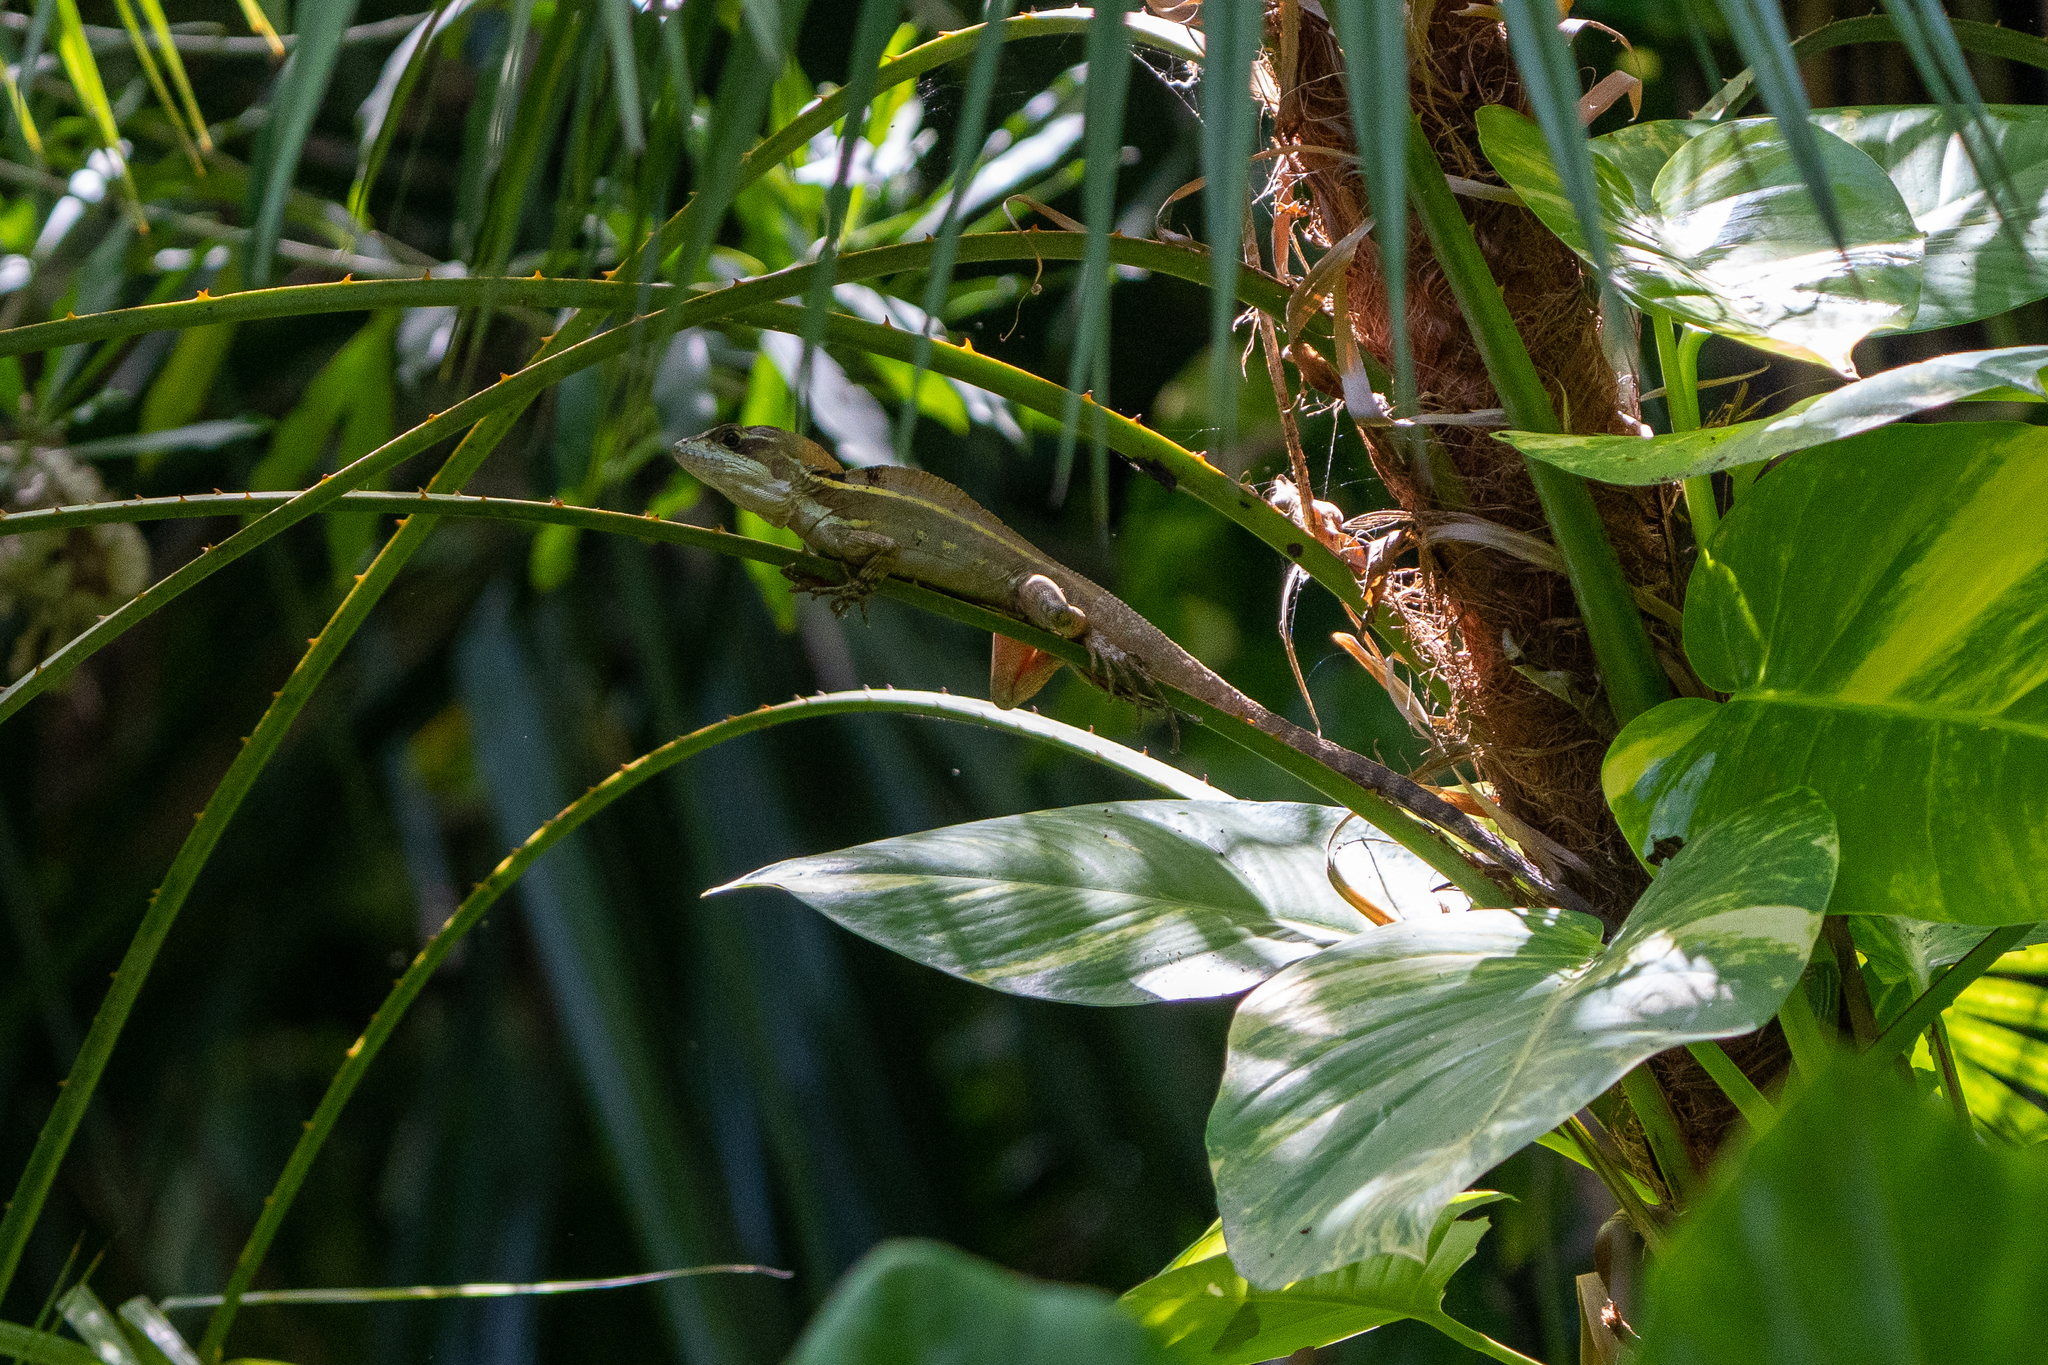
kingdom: Animalia
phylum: Chordata
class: Squamata
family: Corytophanidae
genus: Basiliscus
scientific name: Basiliscus vittatus
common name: Brown basilisk
